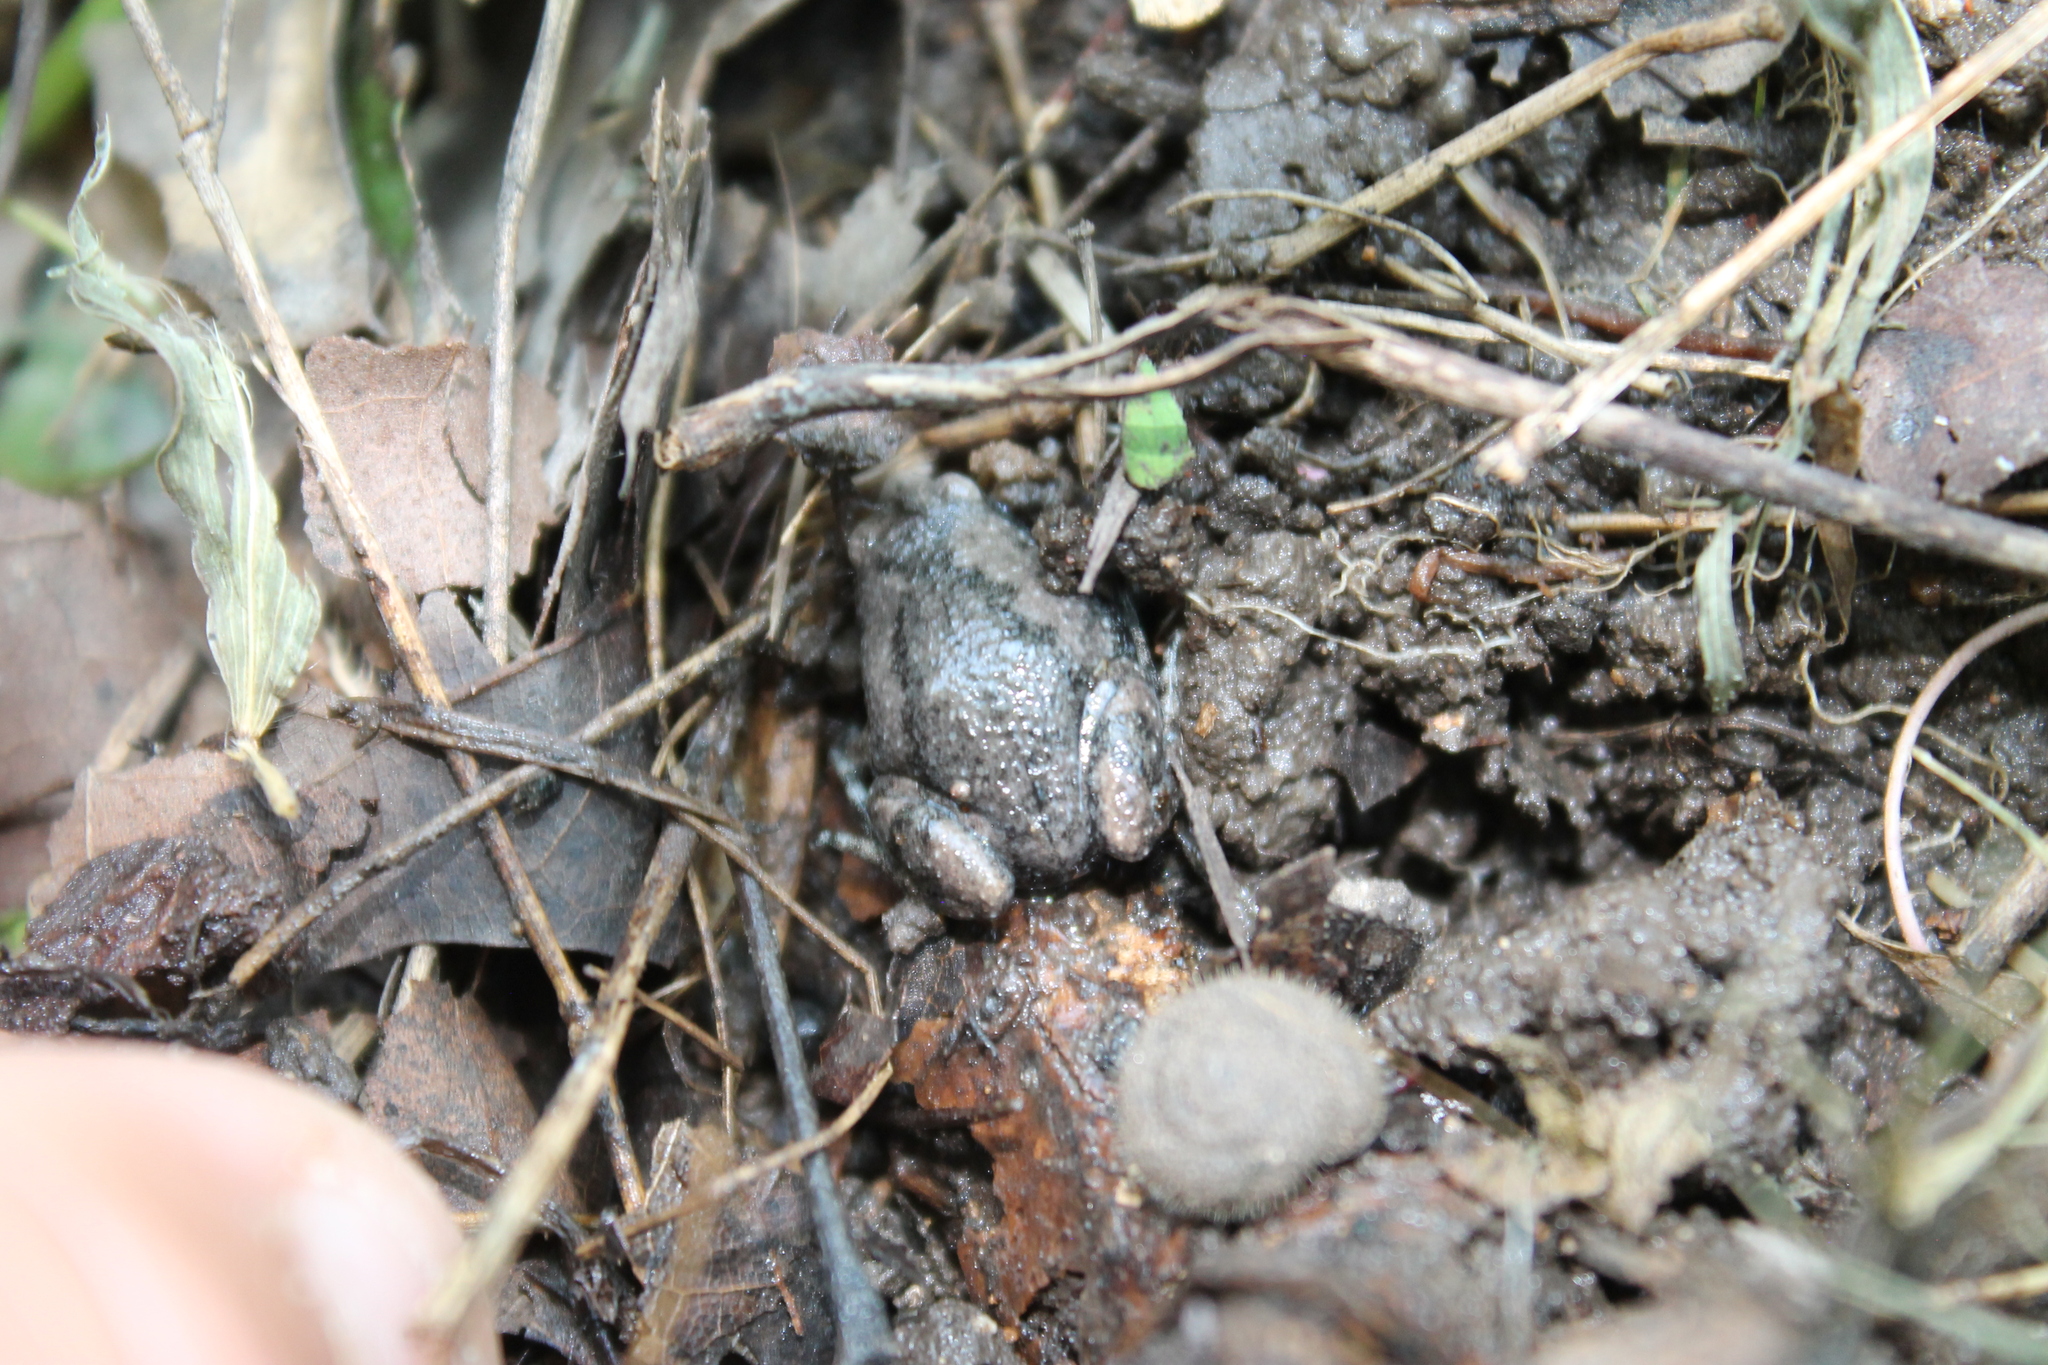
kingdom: Animalia
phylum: Chordata
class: Amphibia
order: Anura
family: Microhylidae
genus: Gastrophryne
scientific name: Gastrophryne carolinensis
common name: Eastern narrowmouth toad
